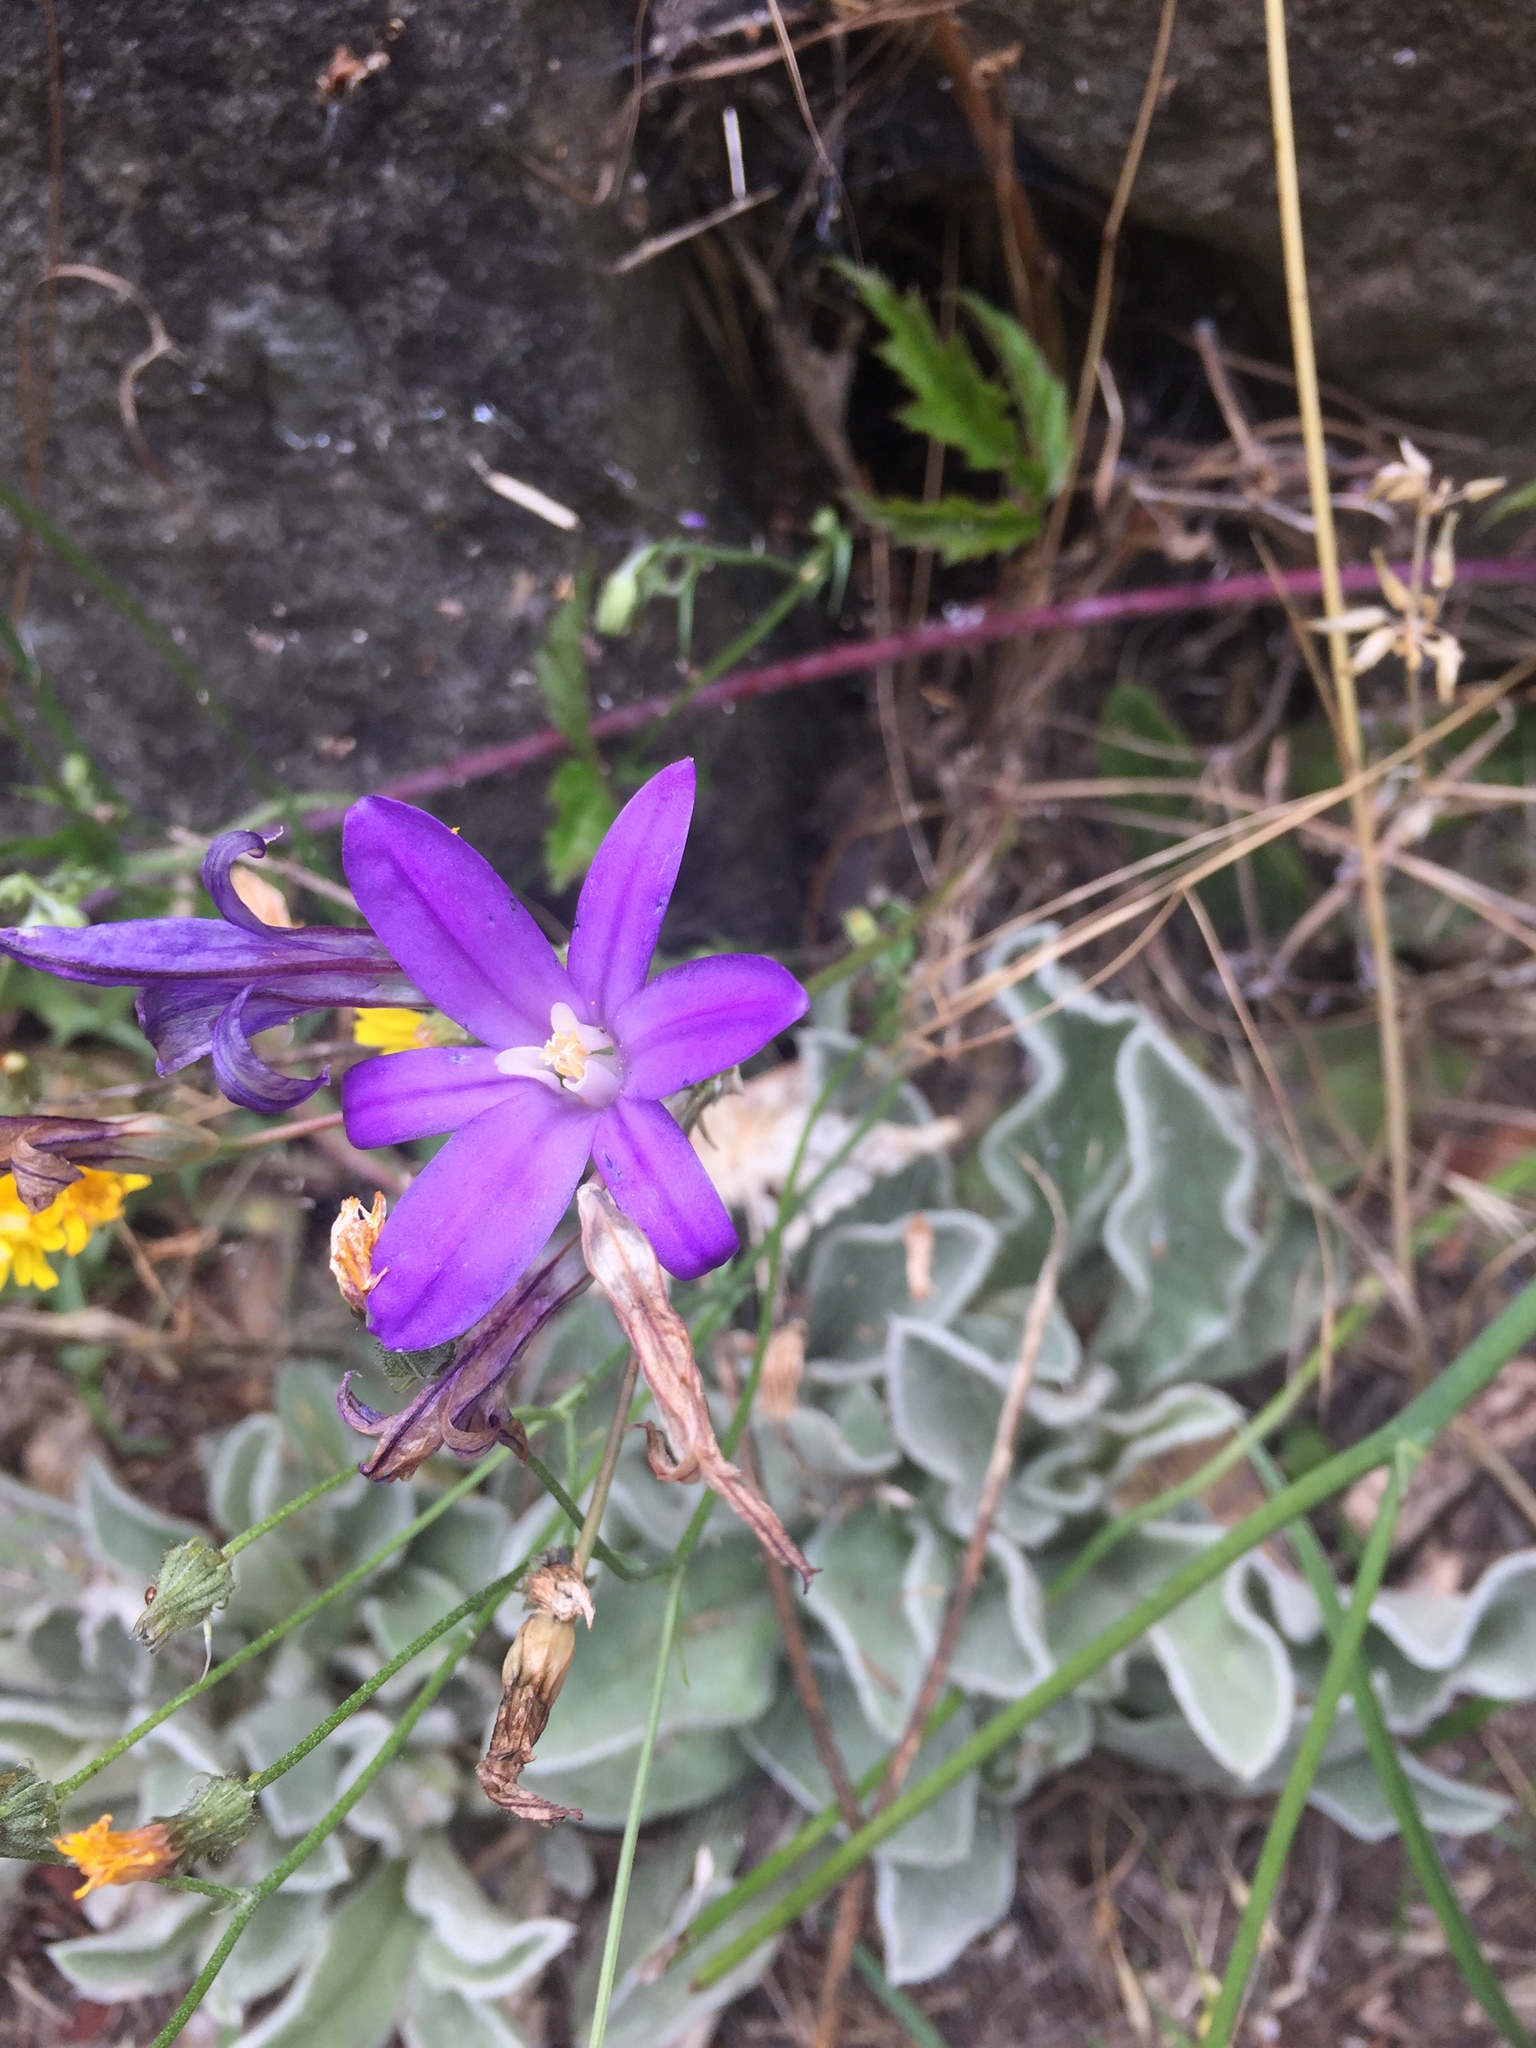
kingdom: Plantae
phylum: Tracheophyta
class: Liliopsida
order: Asparagales
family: Asparagaceae
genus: Brodiaea
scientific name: Brodiaea coronaria
